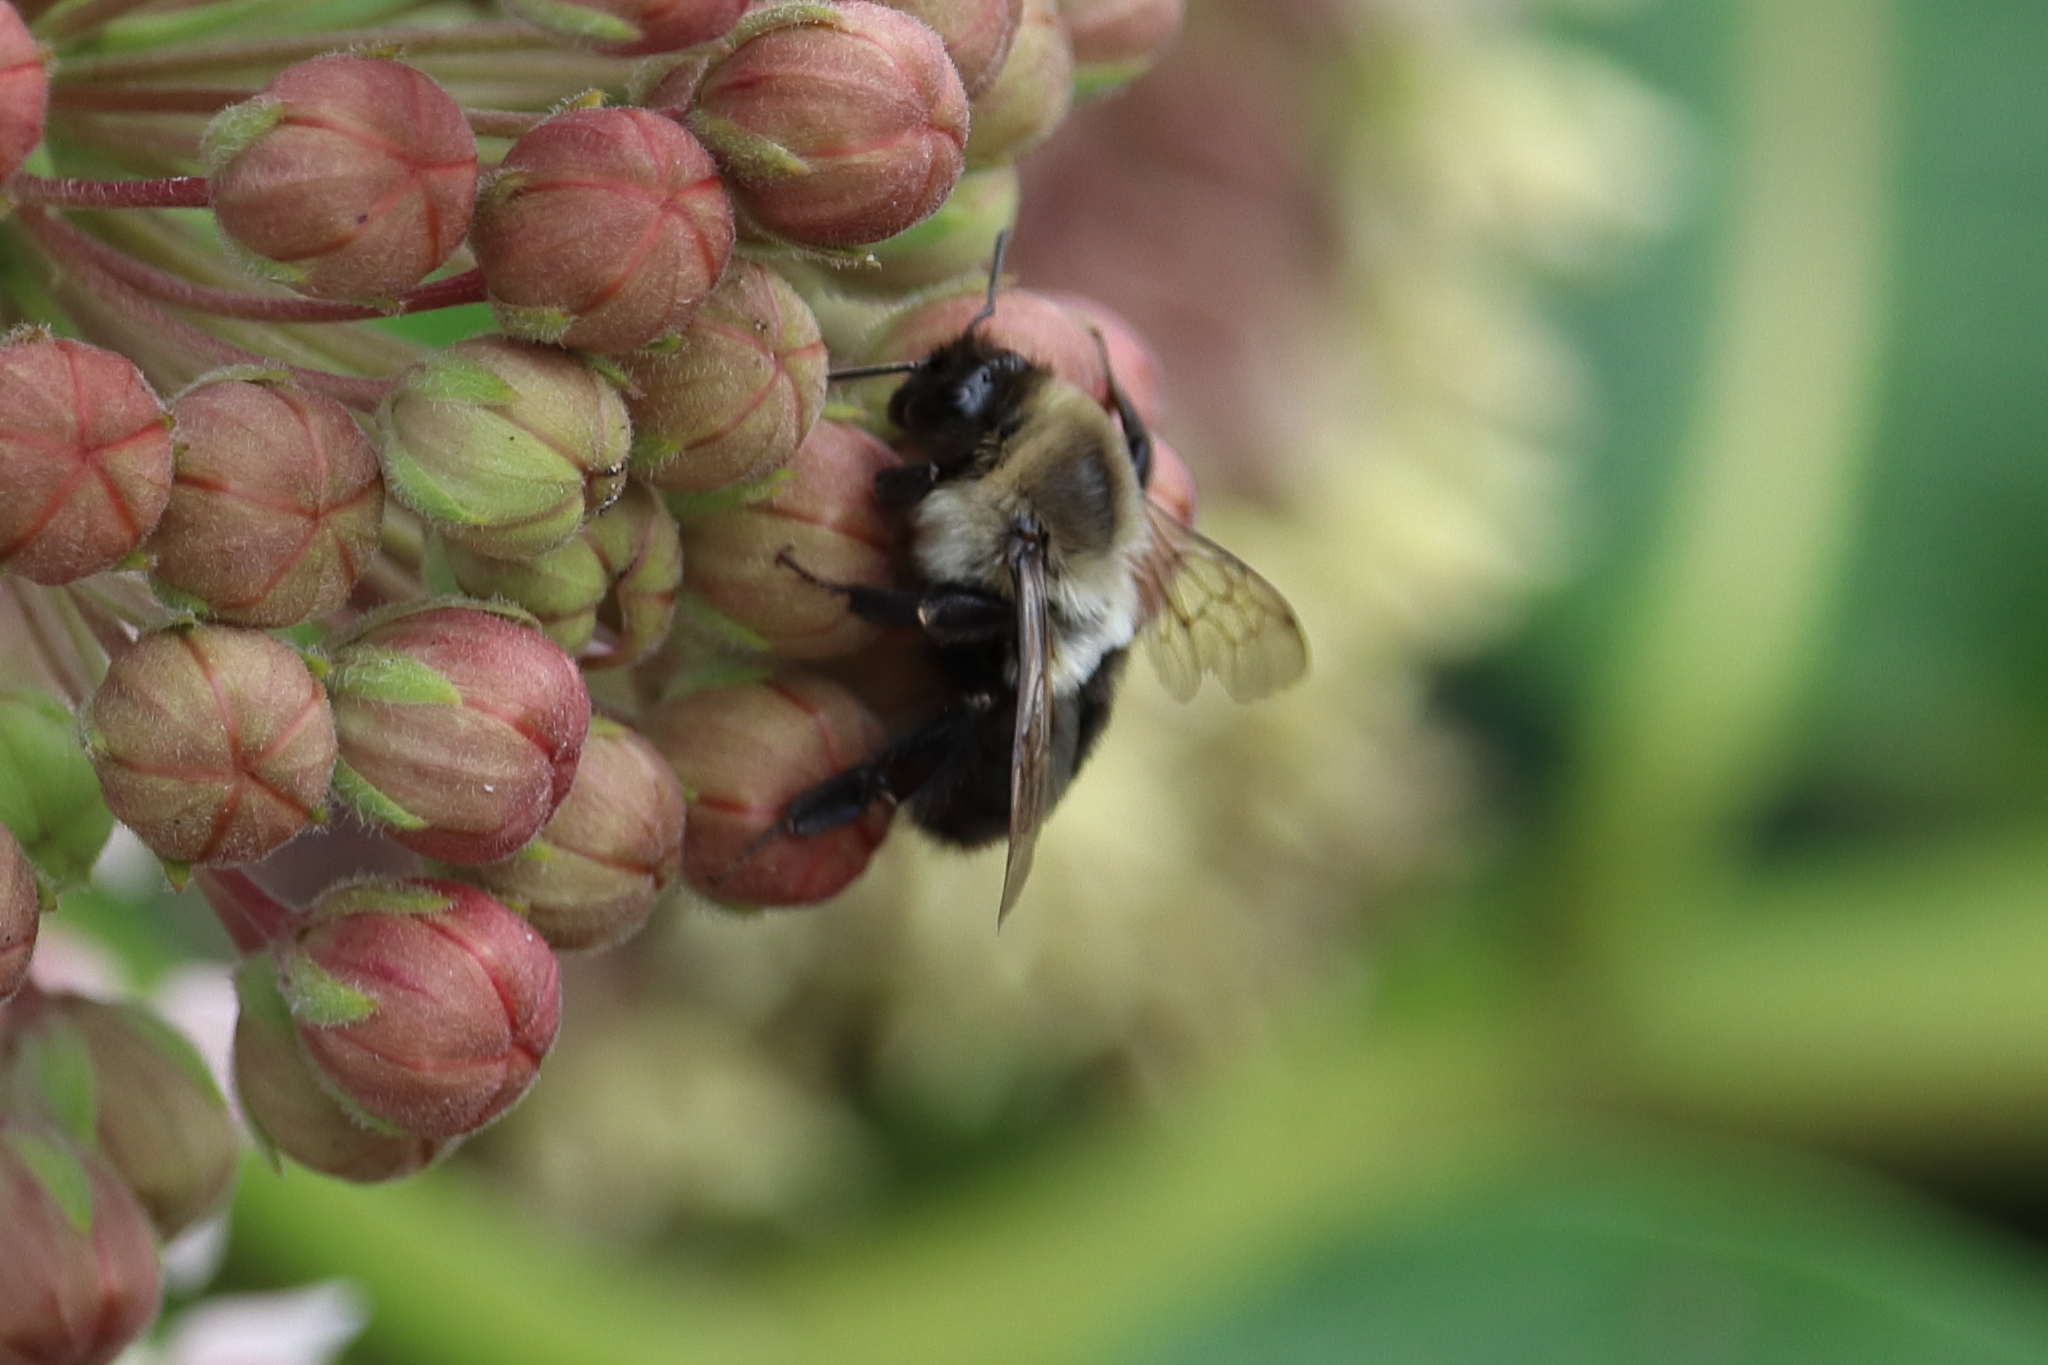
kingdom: Animalia
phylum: Arthropoda
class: Insecta
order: Hymenoptera
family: Apidae
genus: Bombus
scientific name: Bombus impatiens
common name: Common eastern bumble bee
